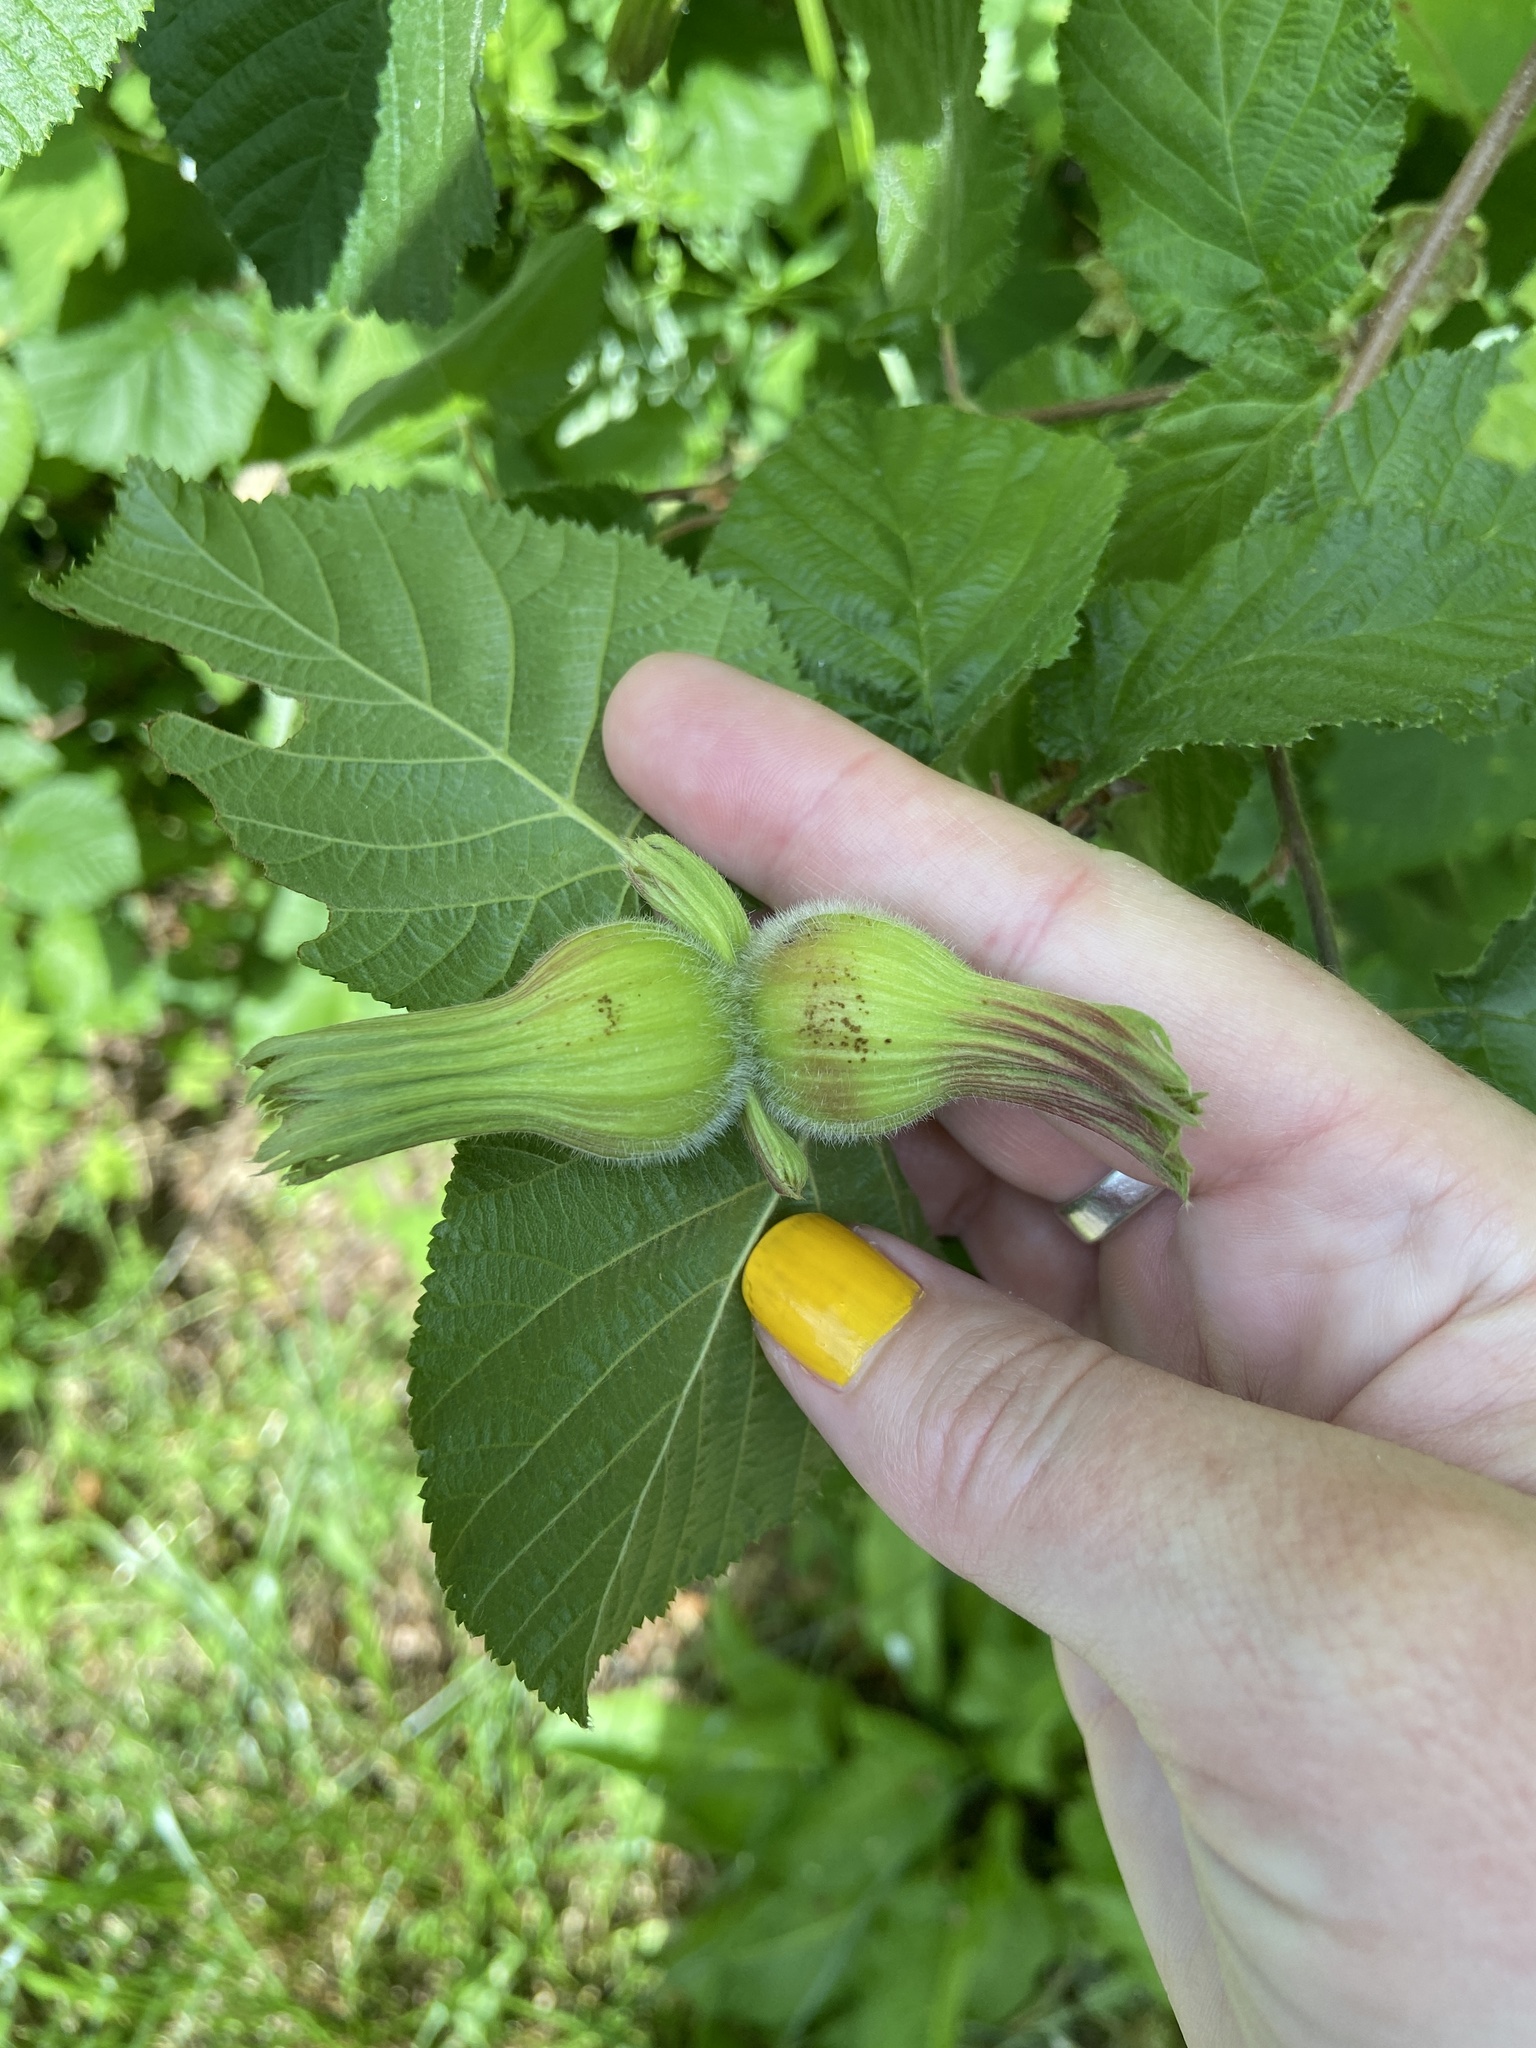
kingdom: Plantae
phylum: Tracheophyta
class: Magnoliopsida
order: Fagales
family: Betulaceae
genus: Corylus
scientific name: Corylus cornuta
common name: Beaked hazel
